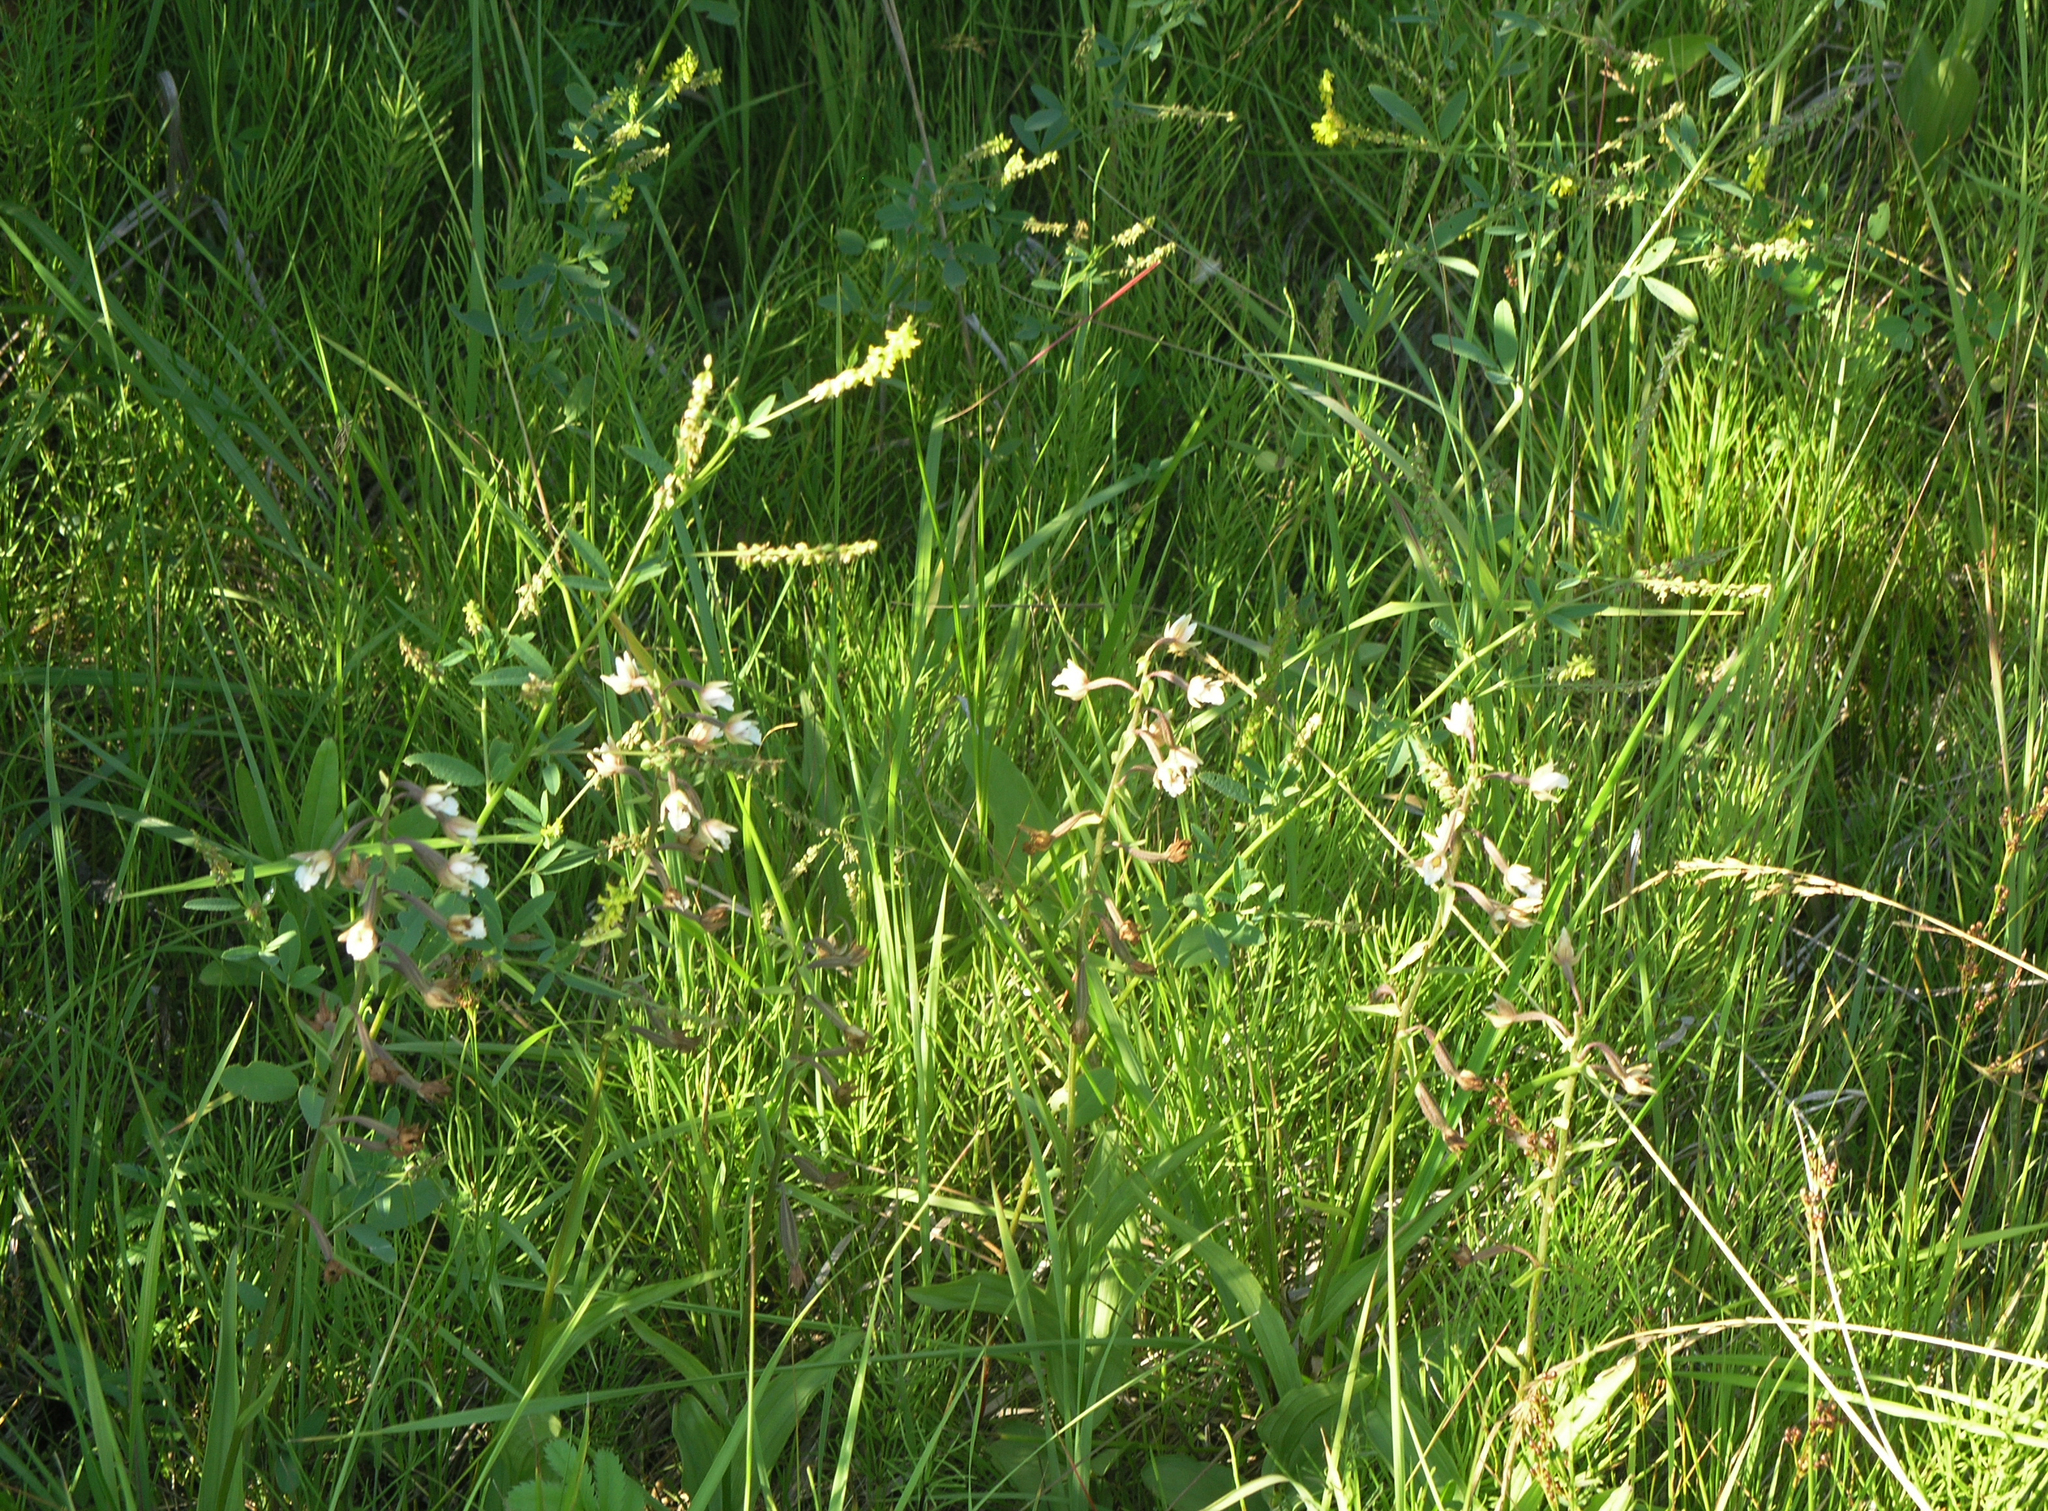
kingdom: Plantae
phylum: Tracheophyta
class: Liliopsida
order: Asparagales
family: Orchidaceae
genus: Epipactis
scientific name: Epipactis palustris
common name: Marsh helleborine
